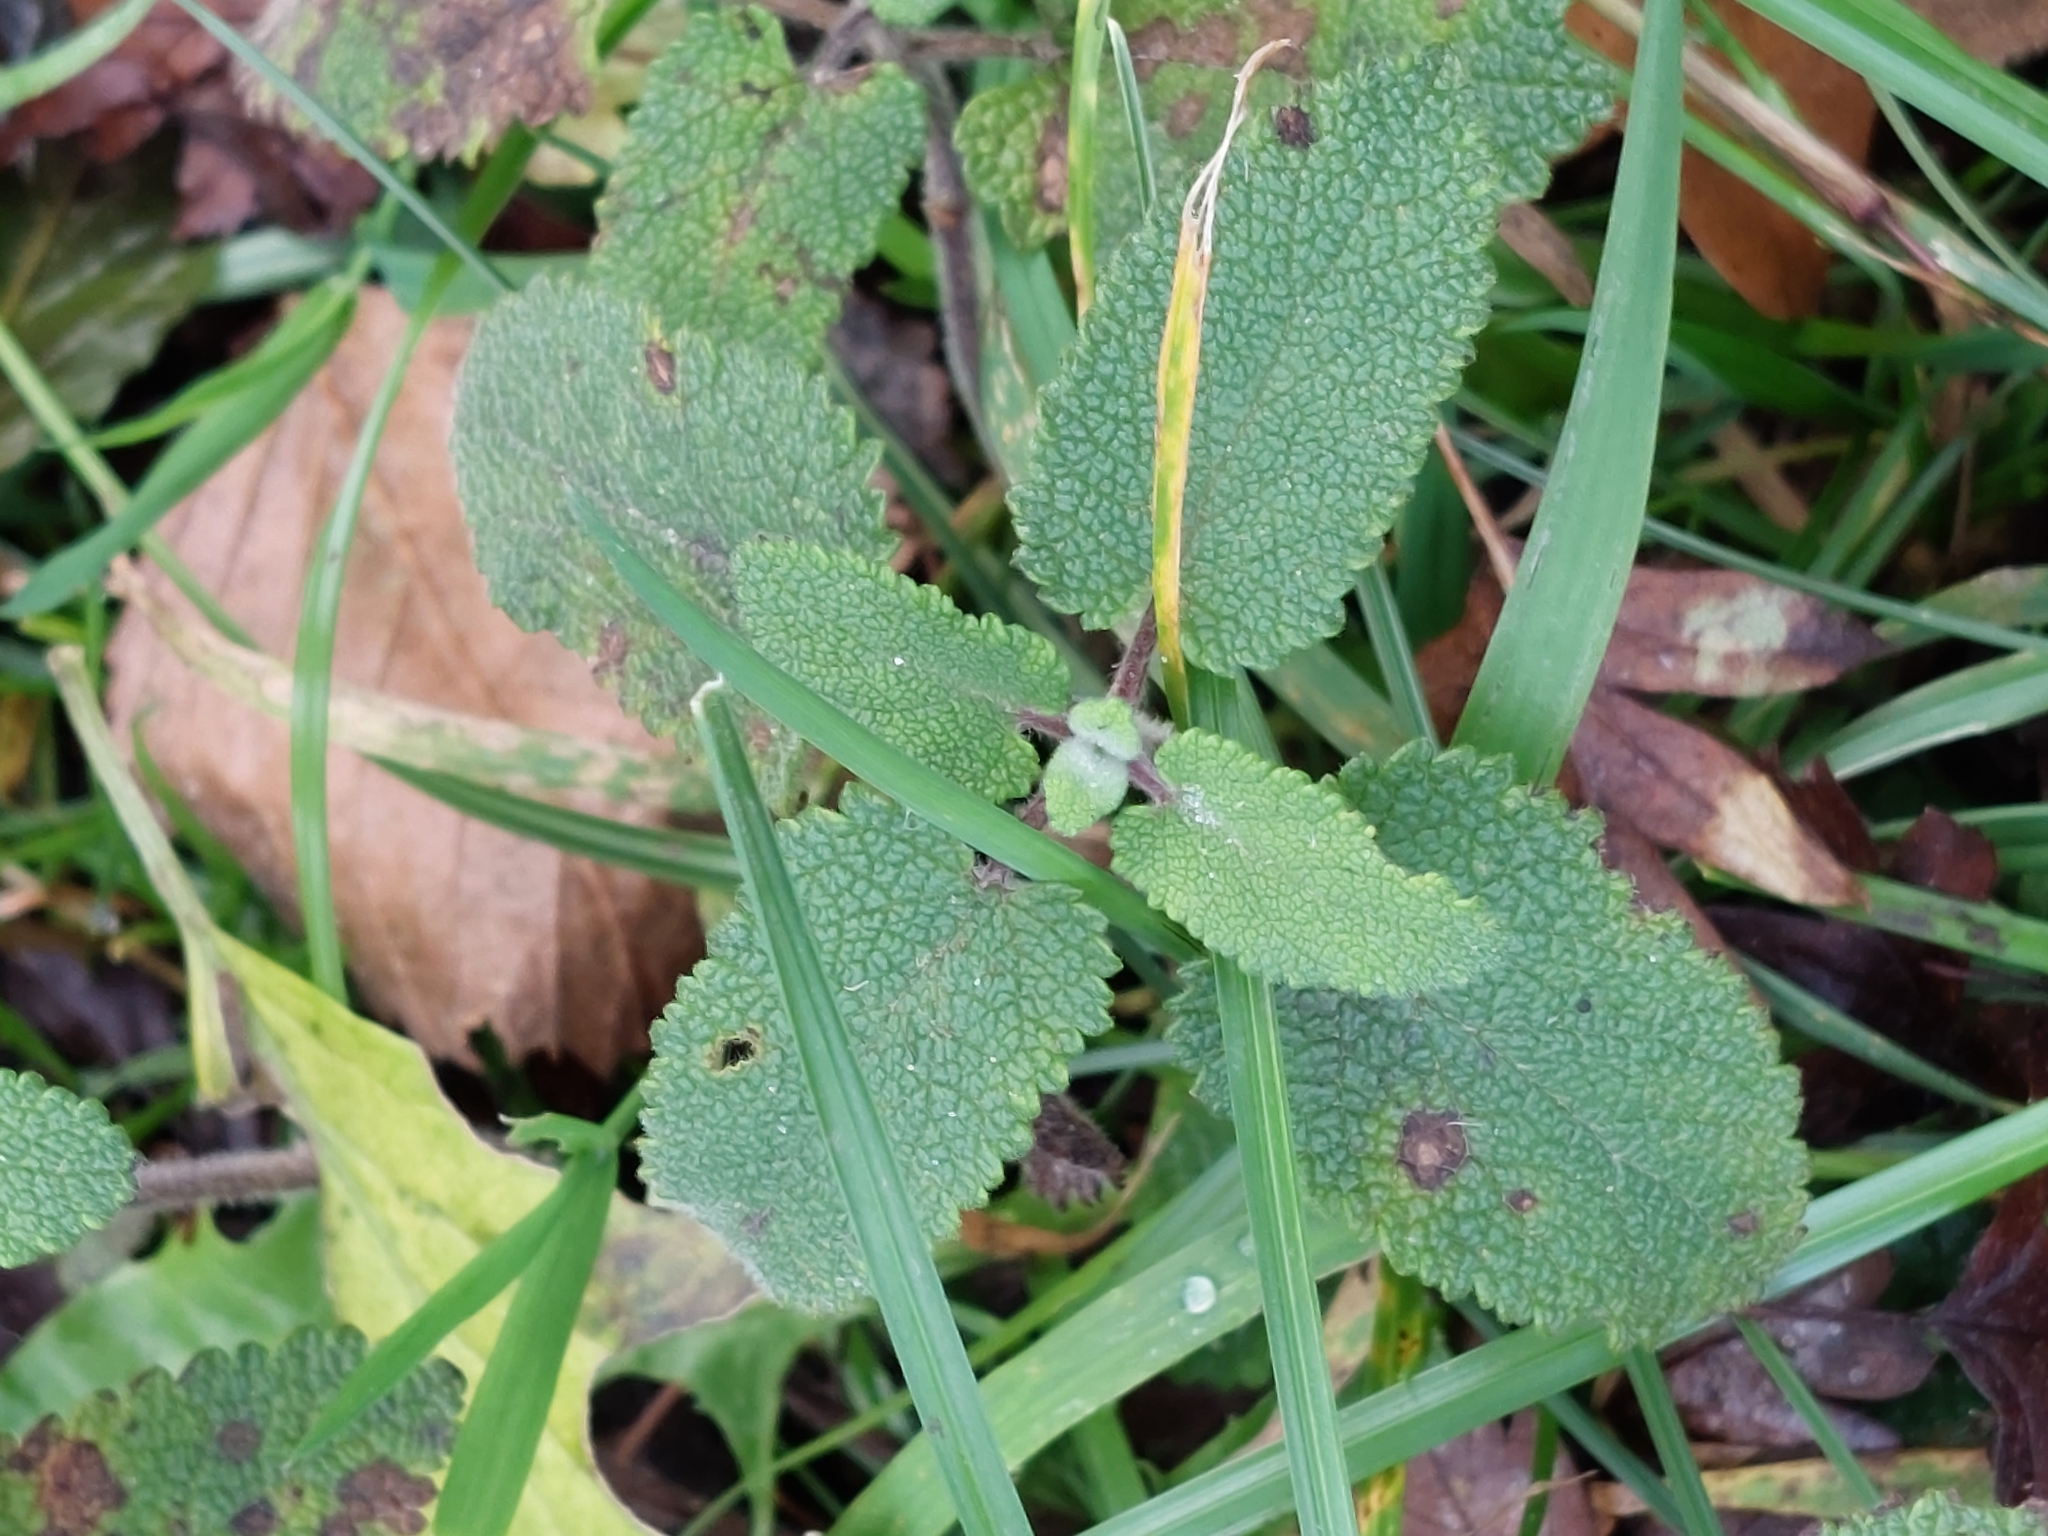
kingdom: Plantae
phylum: Tracheophyta
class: Magnoliopsida
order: Lamiales
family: Lamiaceae
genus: Teucrium
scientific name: Teucrium scorodonia
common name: Woodland germander
